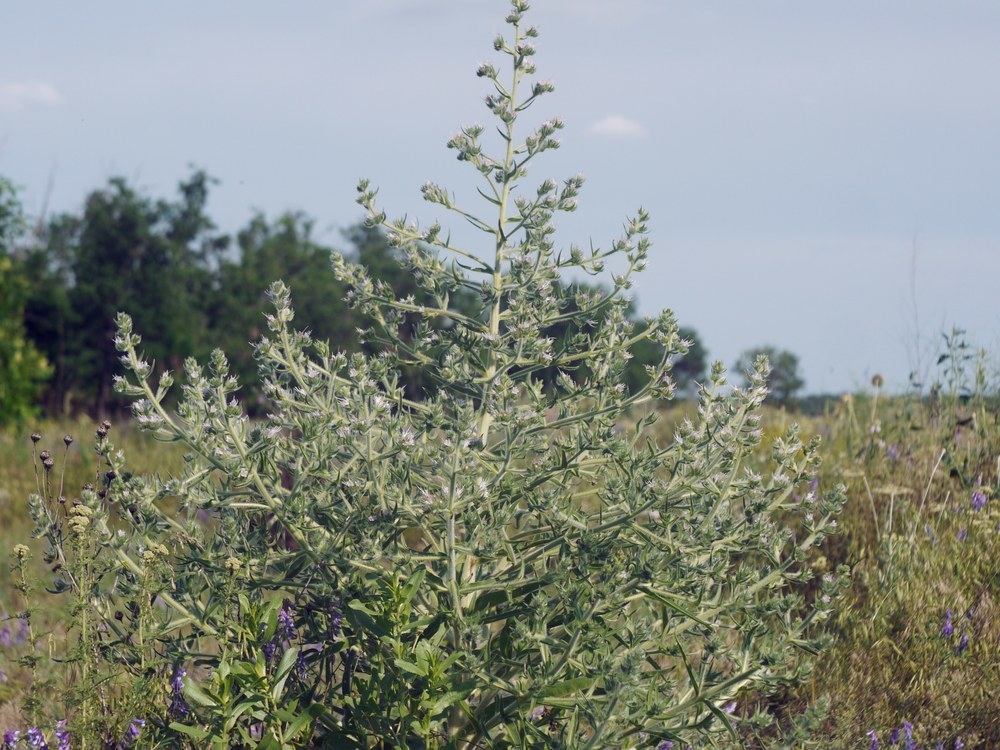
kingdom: Plantae
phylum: Tracheophyta
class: Magnoliopsida
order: Boraginales
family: Boraginaceae
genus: Echium
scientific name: Echium italicum
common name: Italian viper's bugloss
